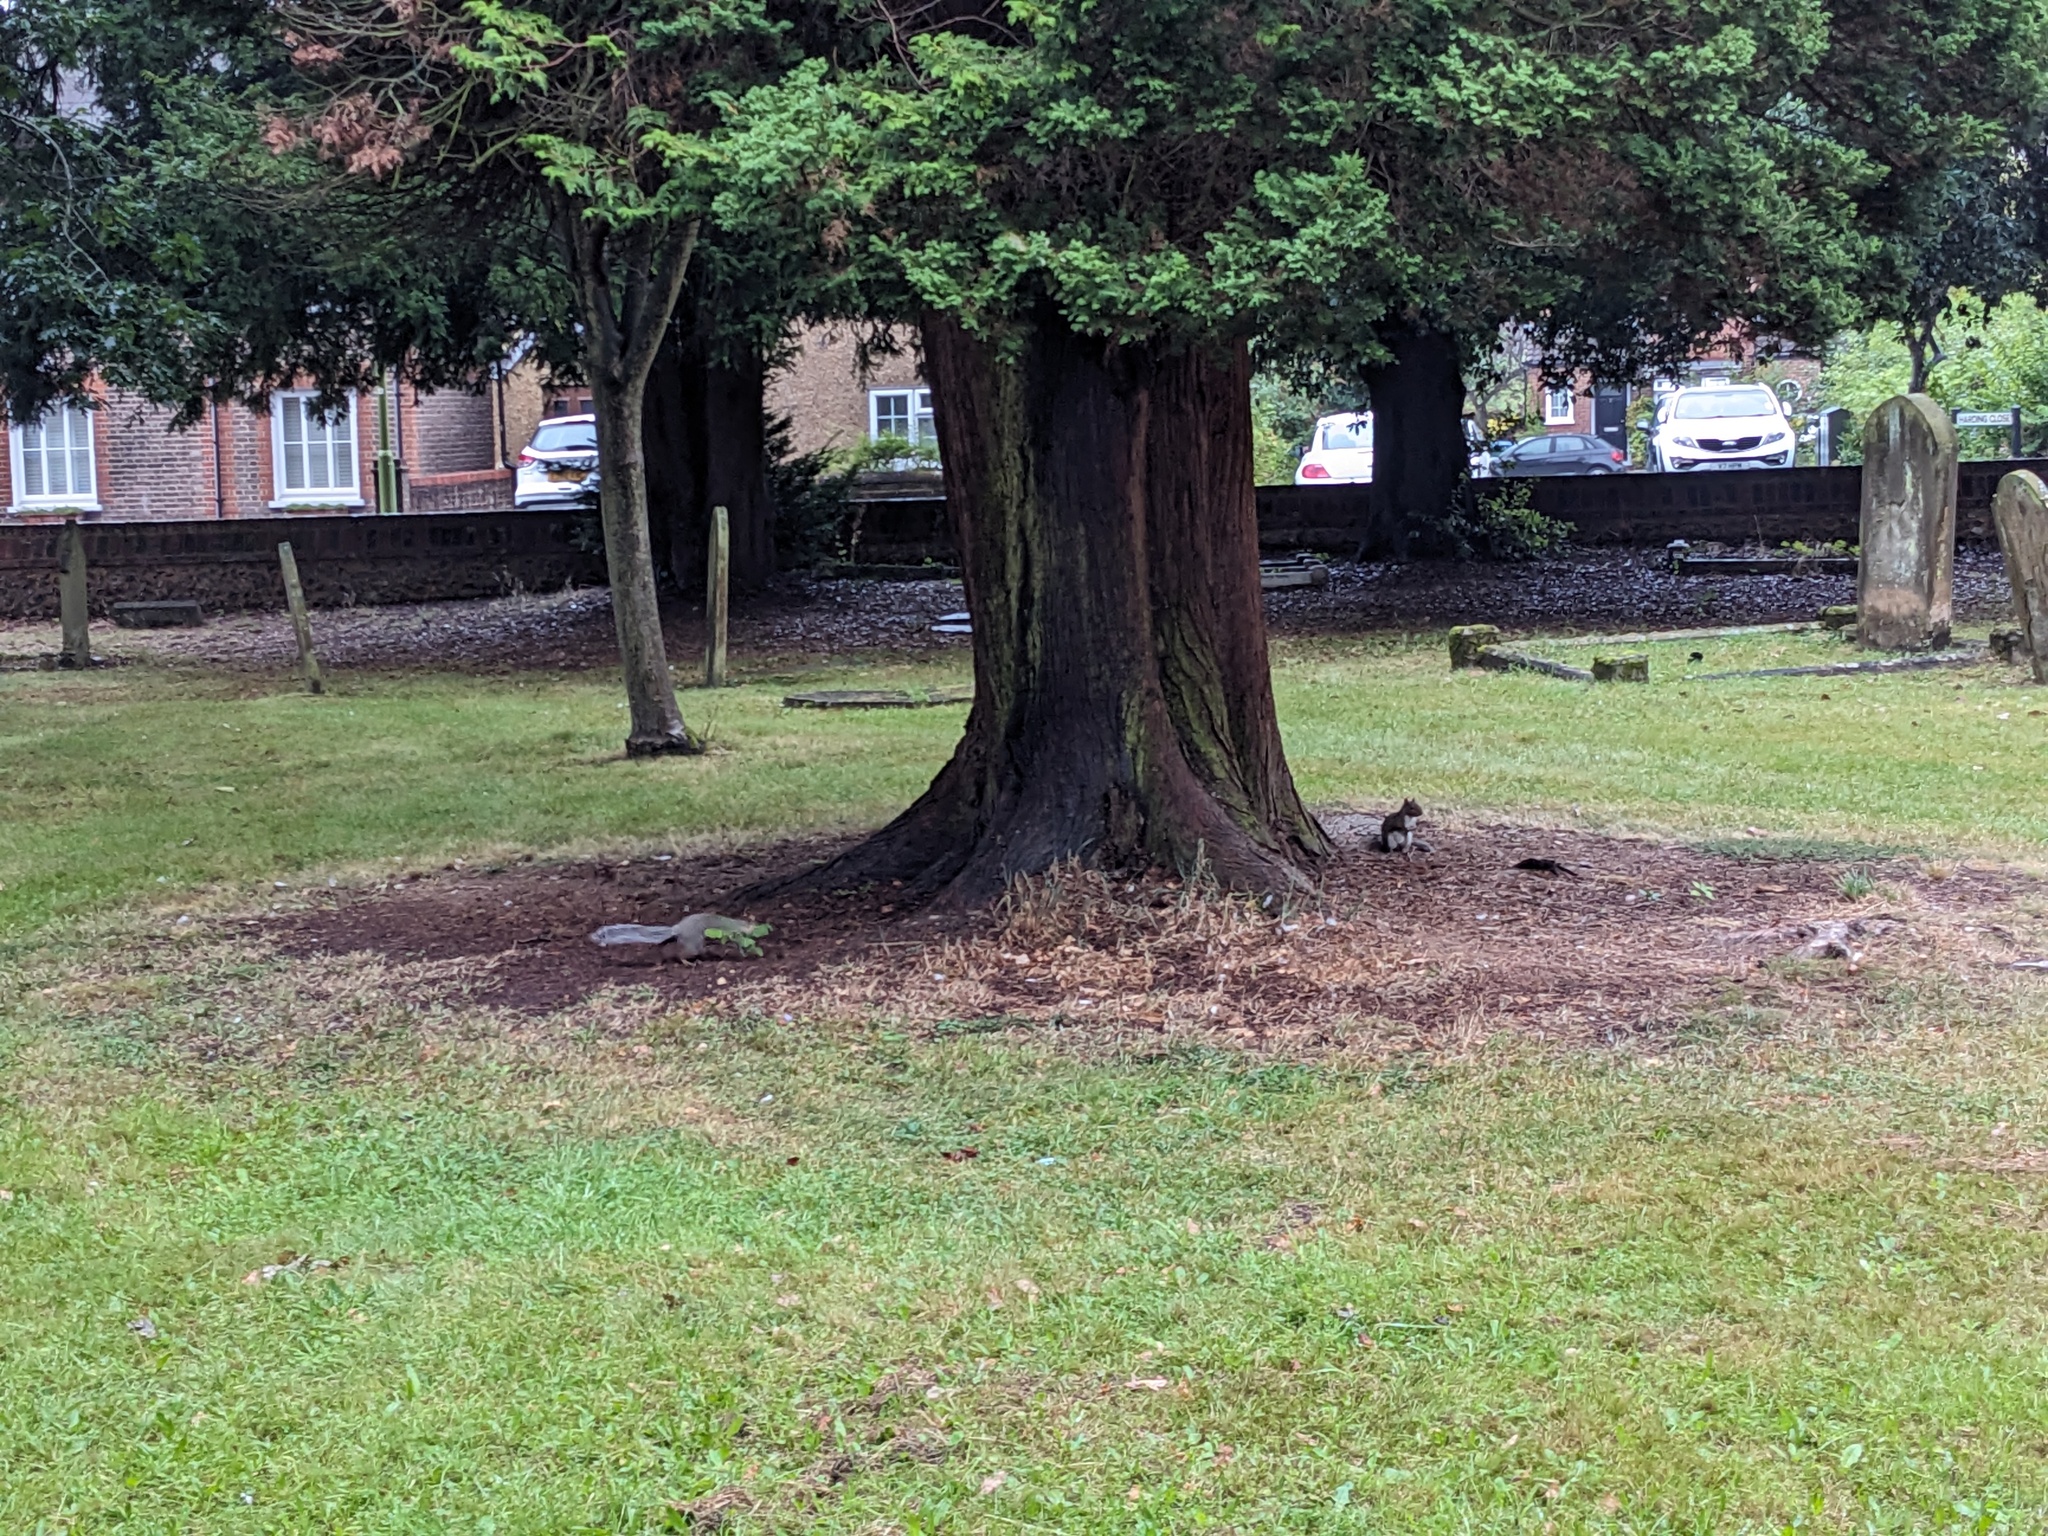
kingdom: Animalia
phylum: Chordata
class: Mammalia
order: Rodentia
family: Sciuridae
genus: Sciurus
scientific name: Sciurus carolinensis
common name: Eastern gray squirrel
